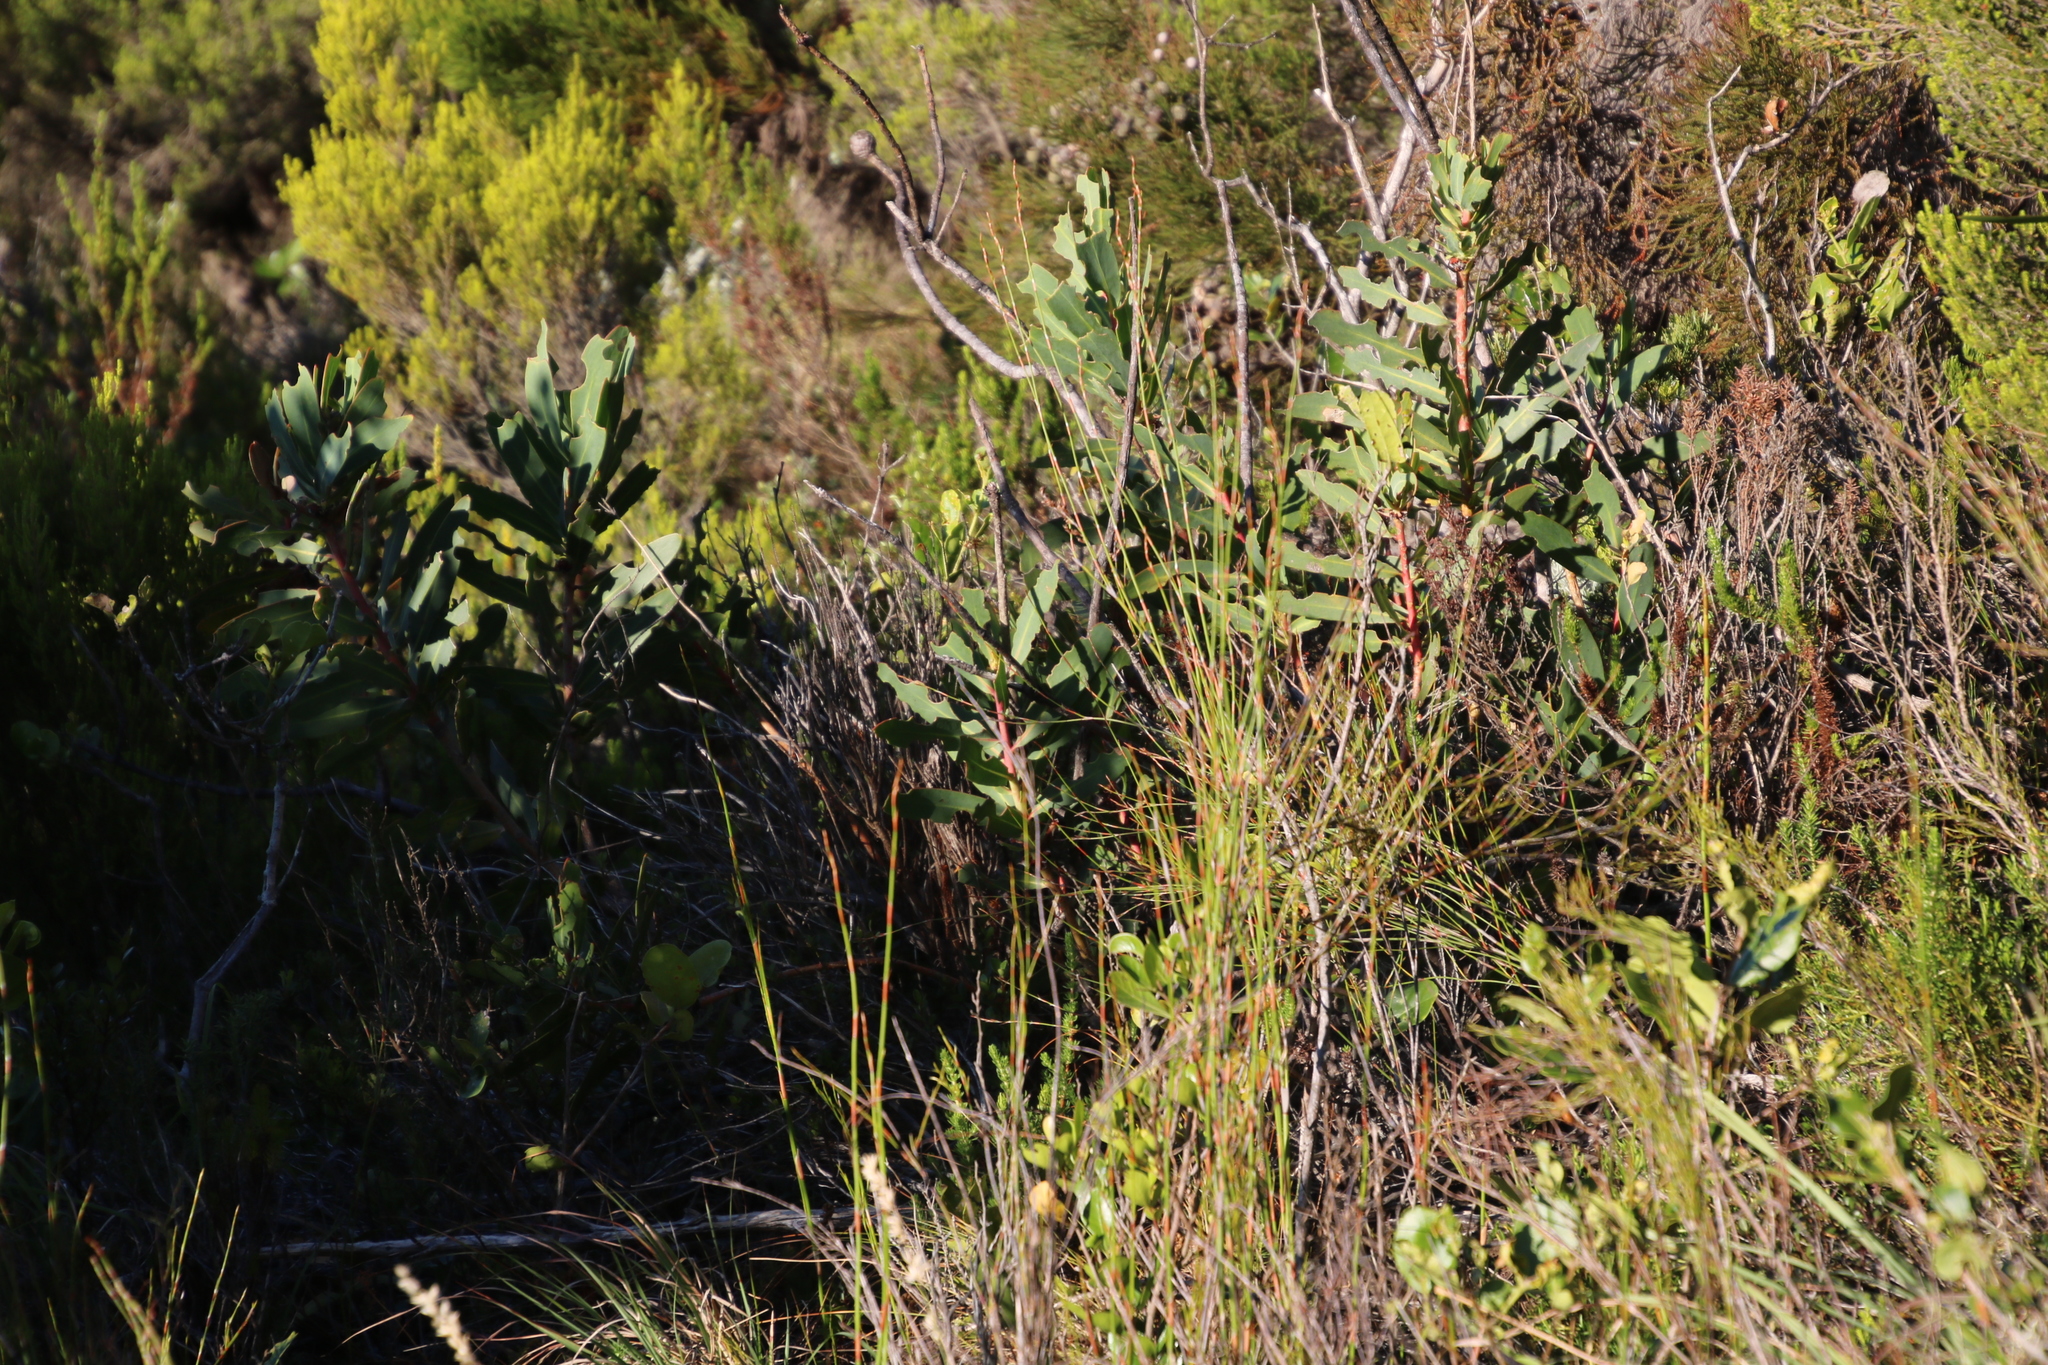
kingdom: Plantae
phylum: Tracheophyta
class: Magnoliopsida
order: Proteales
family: Proteaceae
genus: Protea
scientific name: Protea nitida
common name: Tree protea
